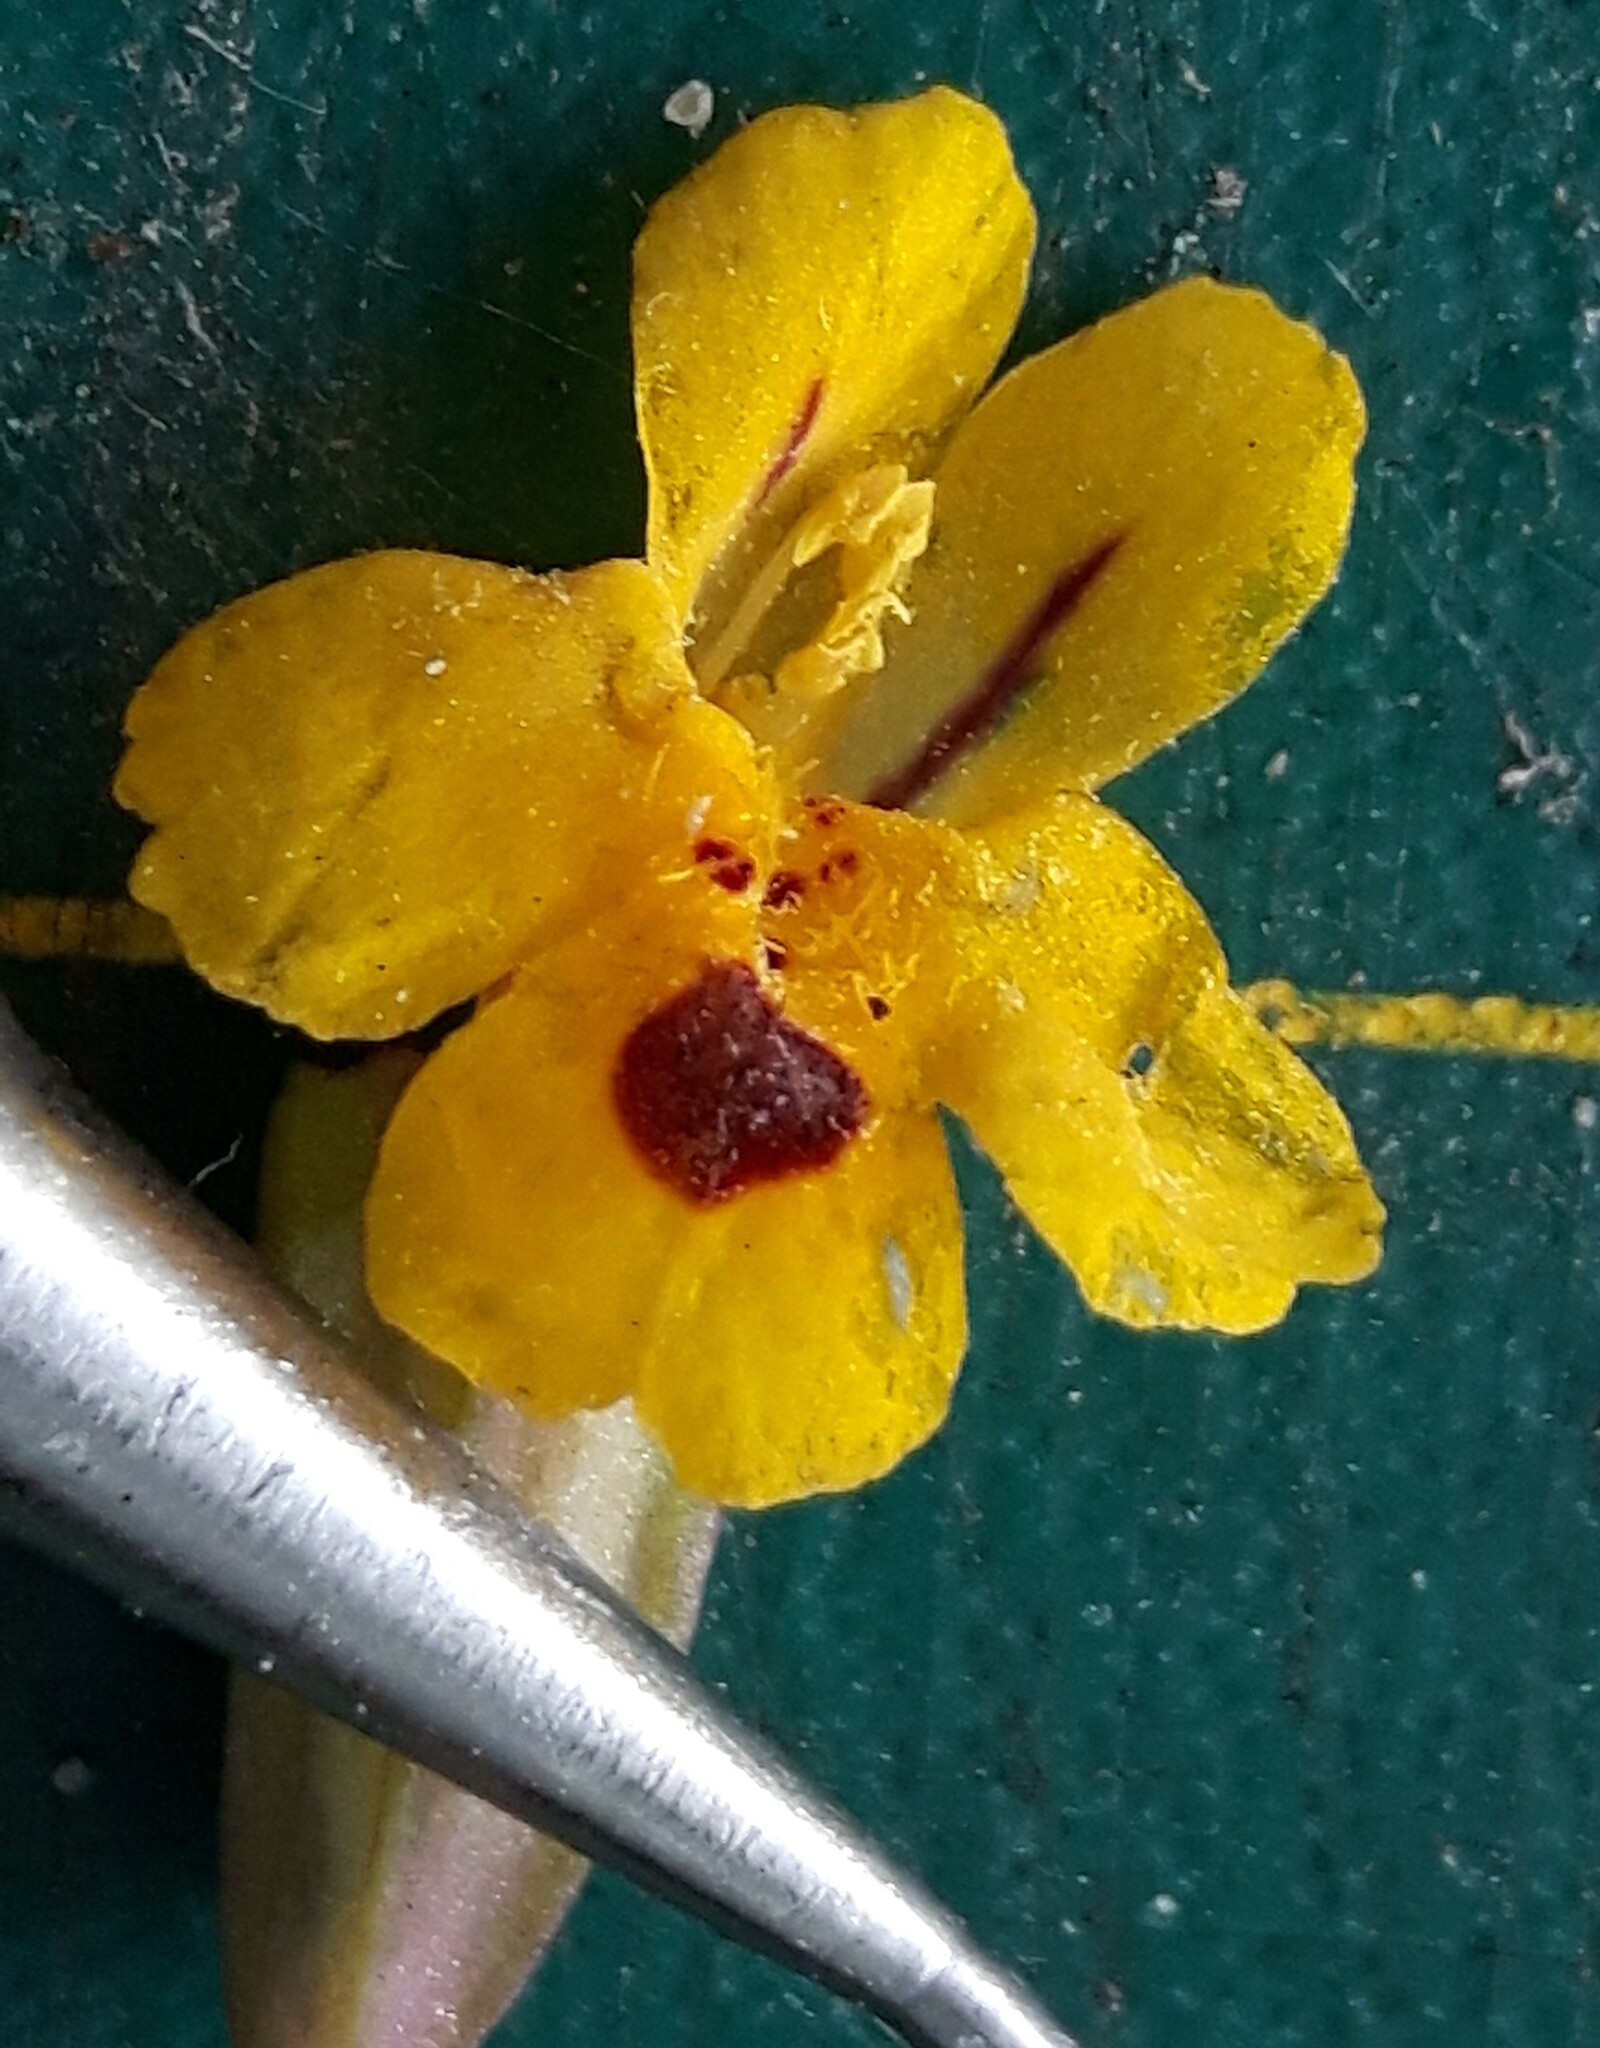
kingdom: Plantae
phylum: Tracheophyta
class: Magnoliopsida
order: Lamiales
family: Phrymaceae
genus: Erythranthe
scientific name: Erythranthe alsinoides
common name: Chickweed monkeyflower
